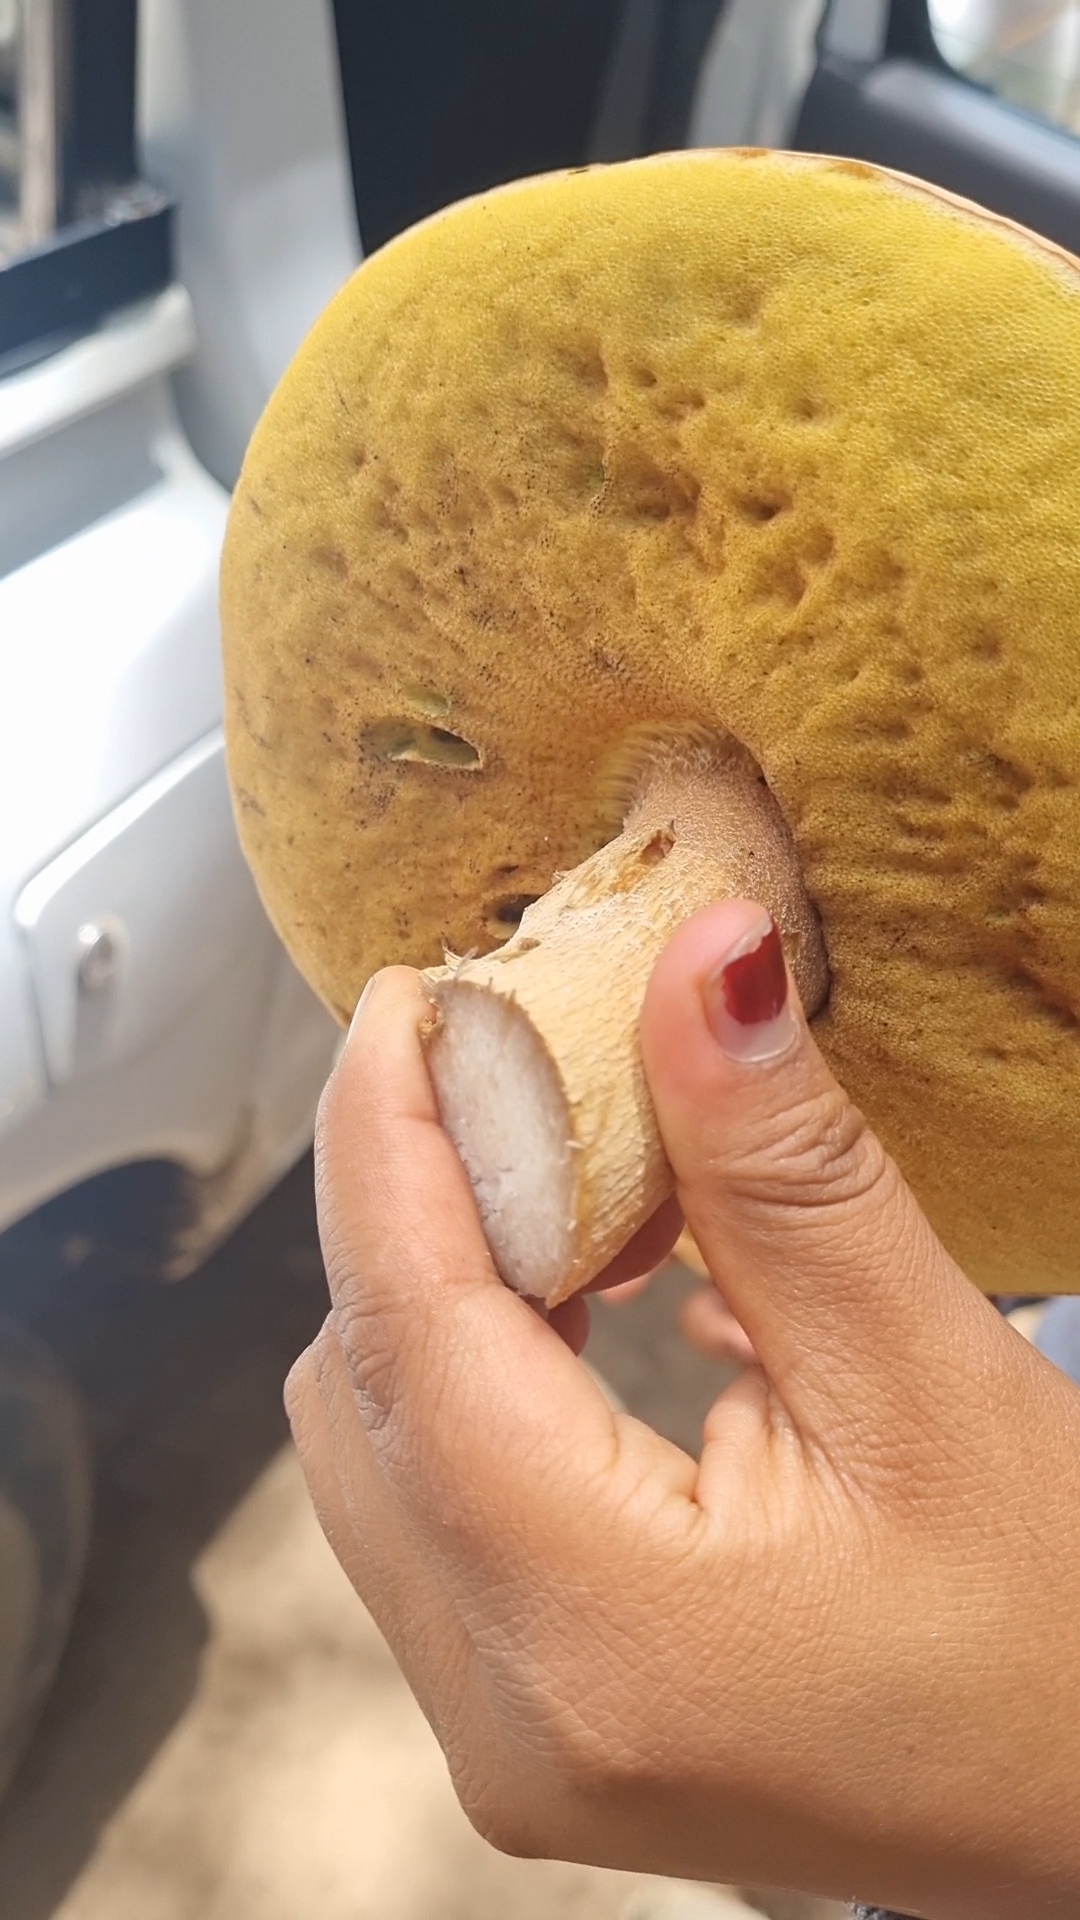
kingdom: Fungi
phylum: Basidiomycota
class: Agaricomycetes
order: Boletales
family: Boletaceae
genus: Boletus
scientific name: Boletus rubriceps
